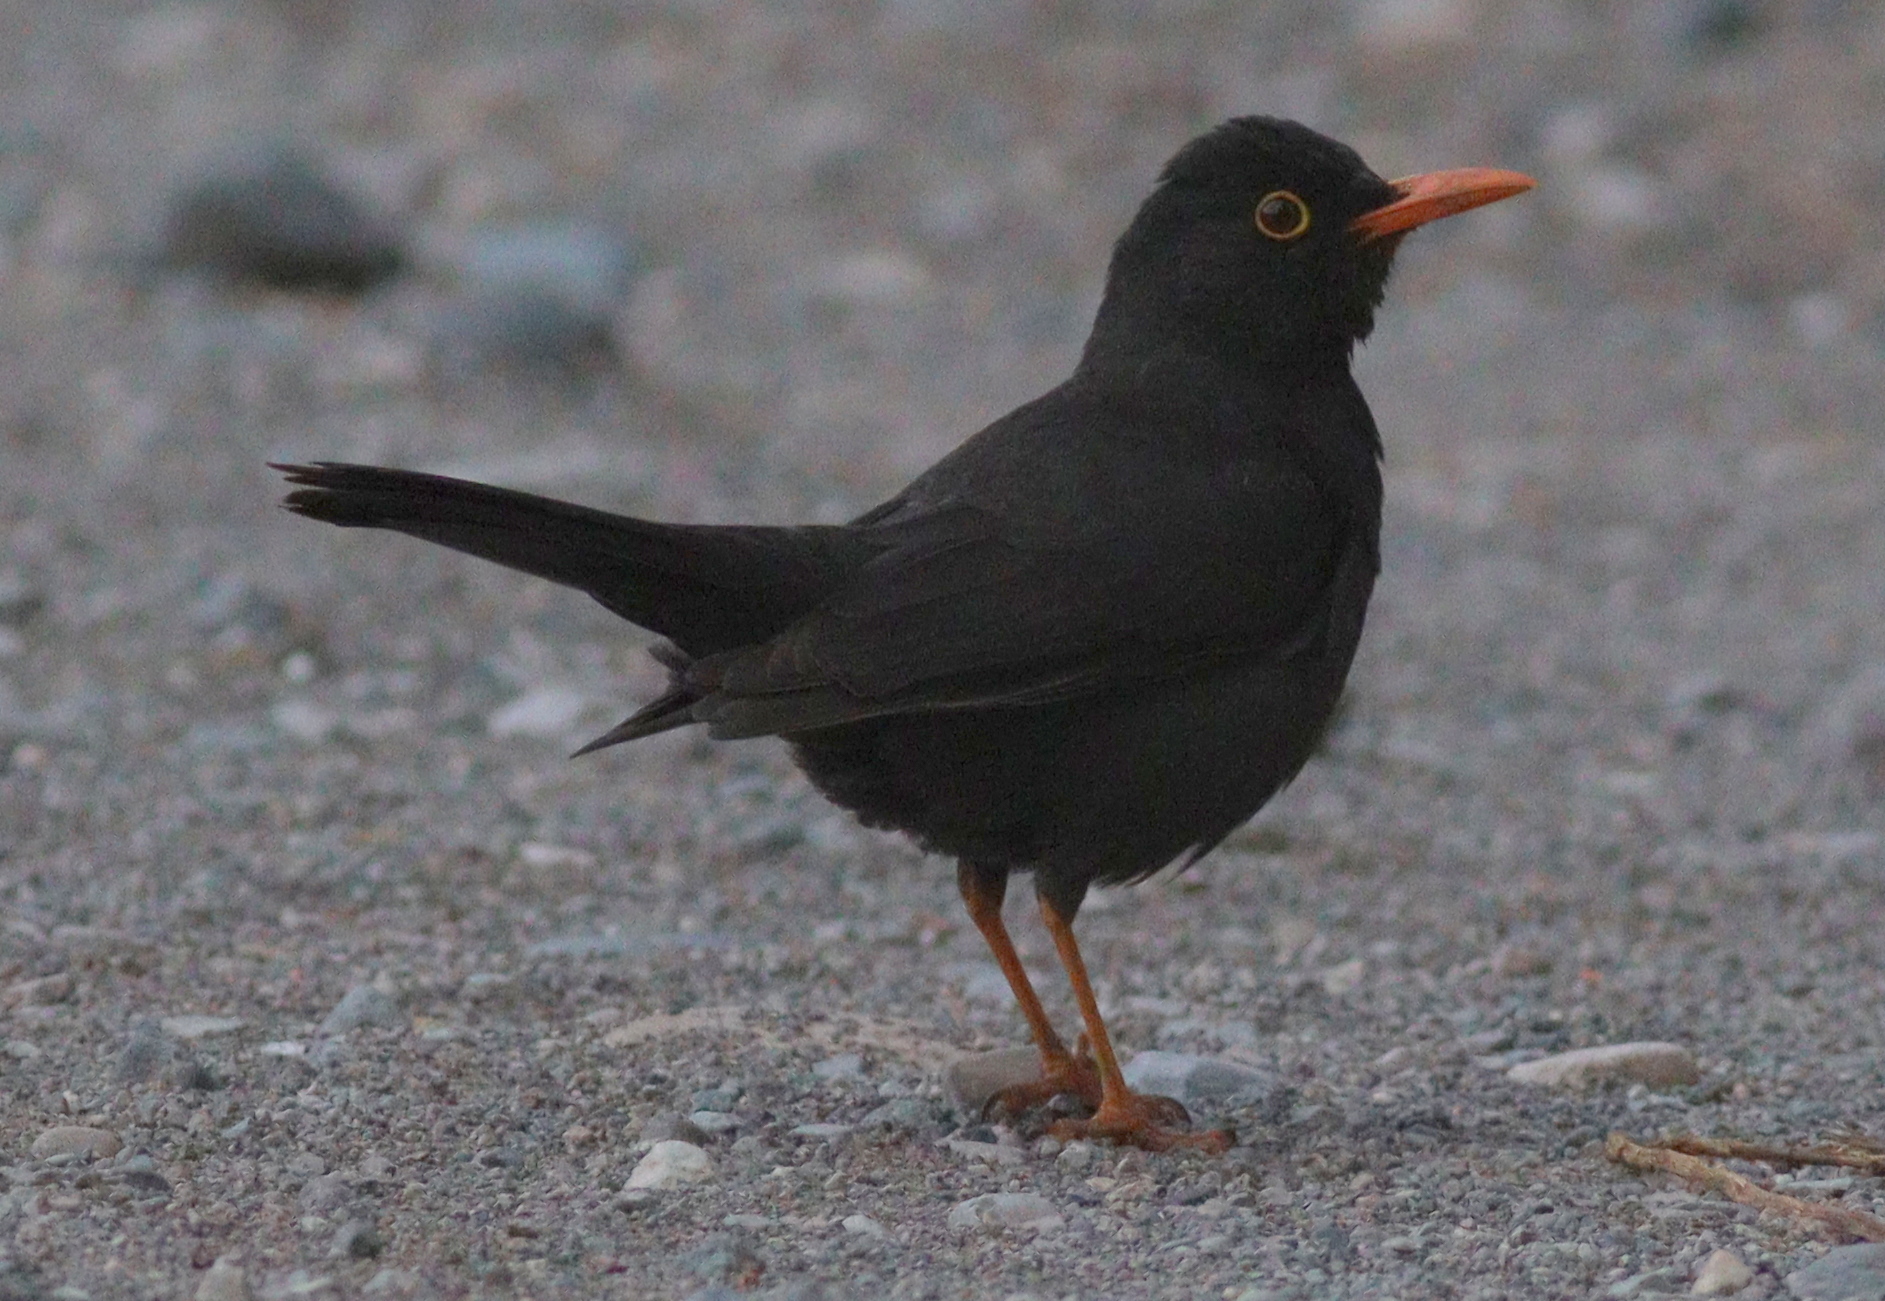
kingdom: Animalia
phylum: Chordata
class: Aves
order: Passeriformes
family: Turdidae
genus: Turdus
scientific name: Turdus chiguanco
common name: Chiguanco thrush
